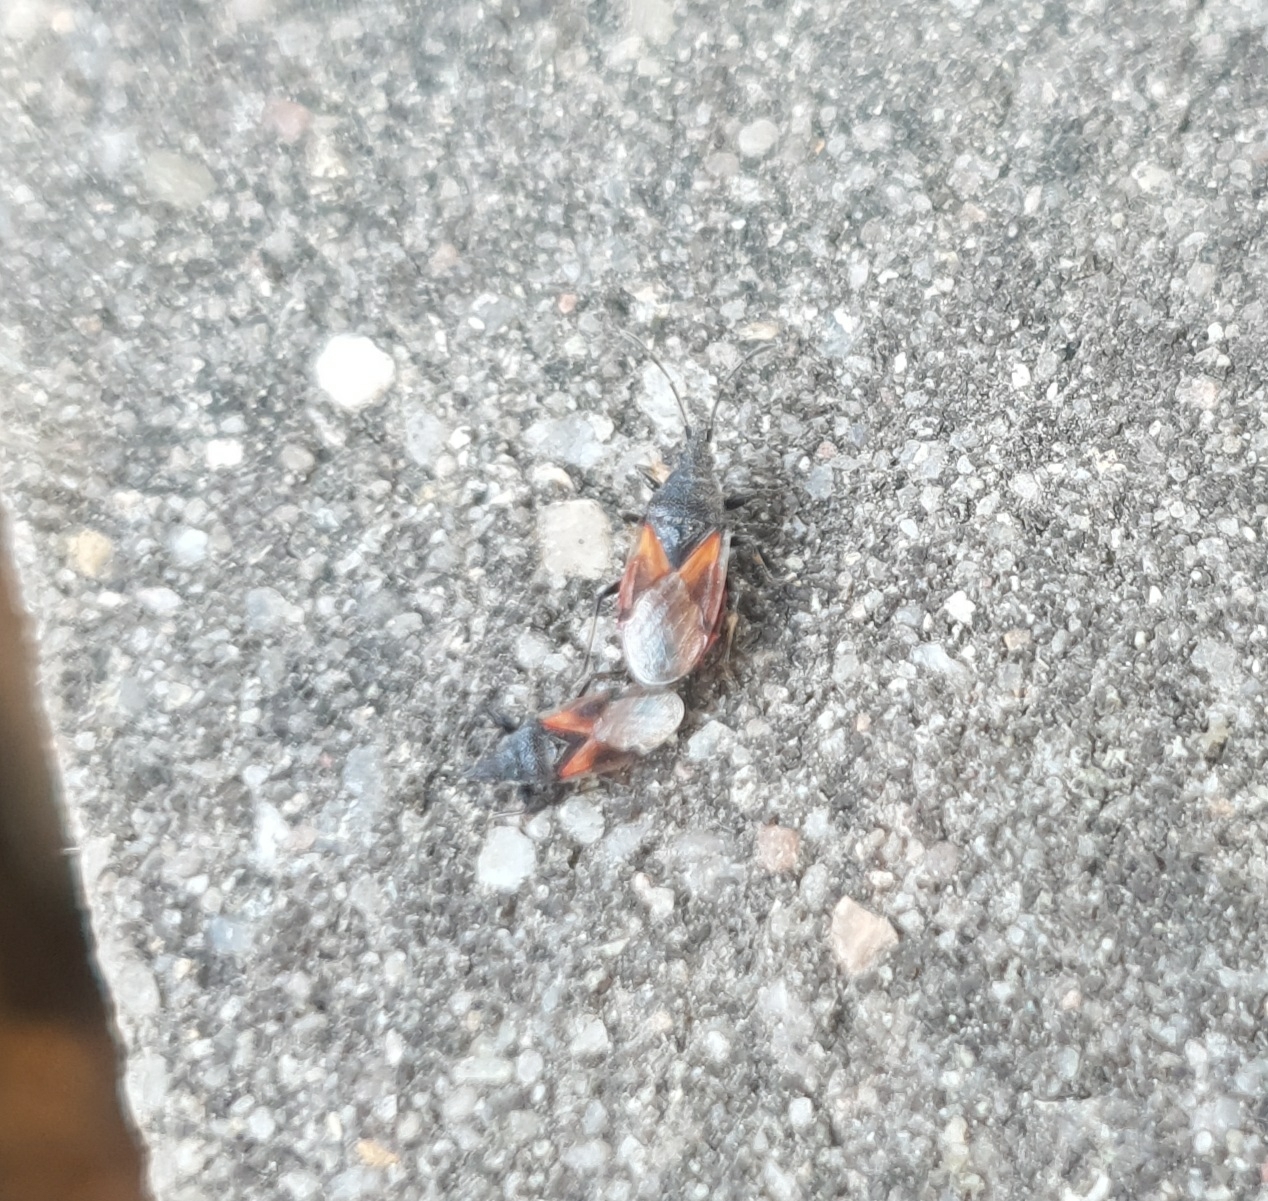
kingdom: Animalia
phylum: Arthropoda
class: Insecta
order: Hemiptera
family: Oxycarenidae
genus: Oxycarenus
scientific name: Oxycarenus lavaterae
